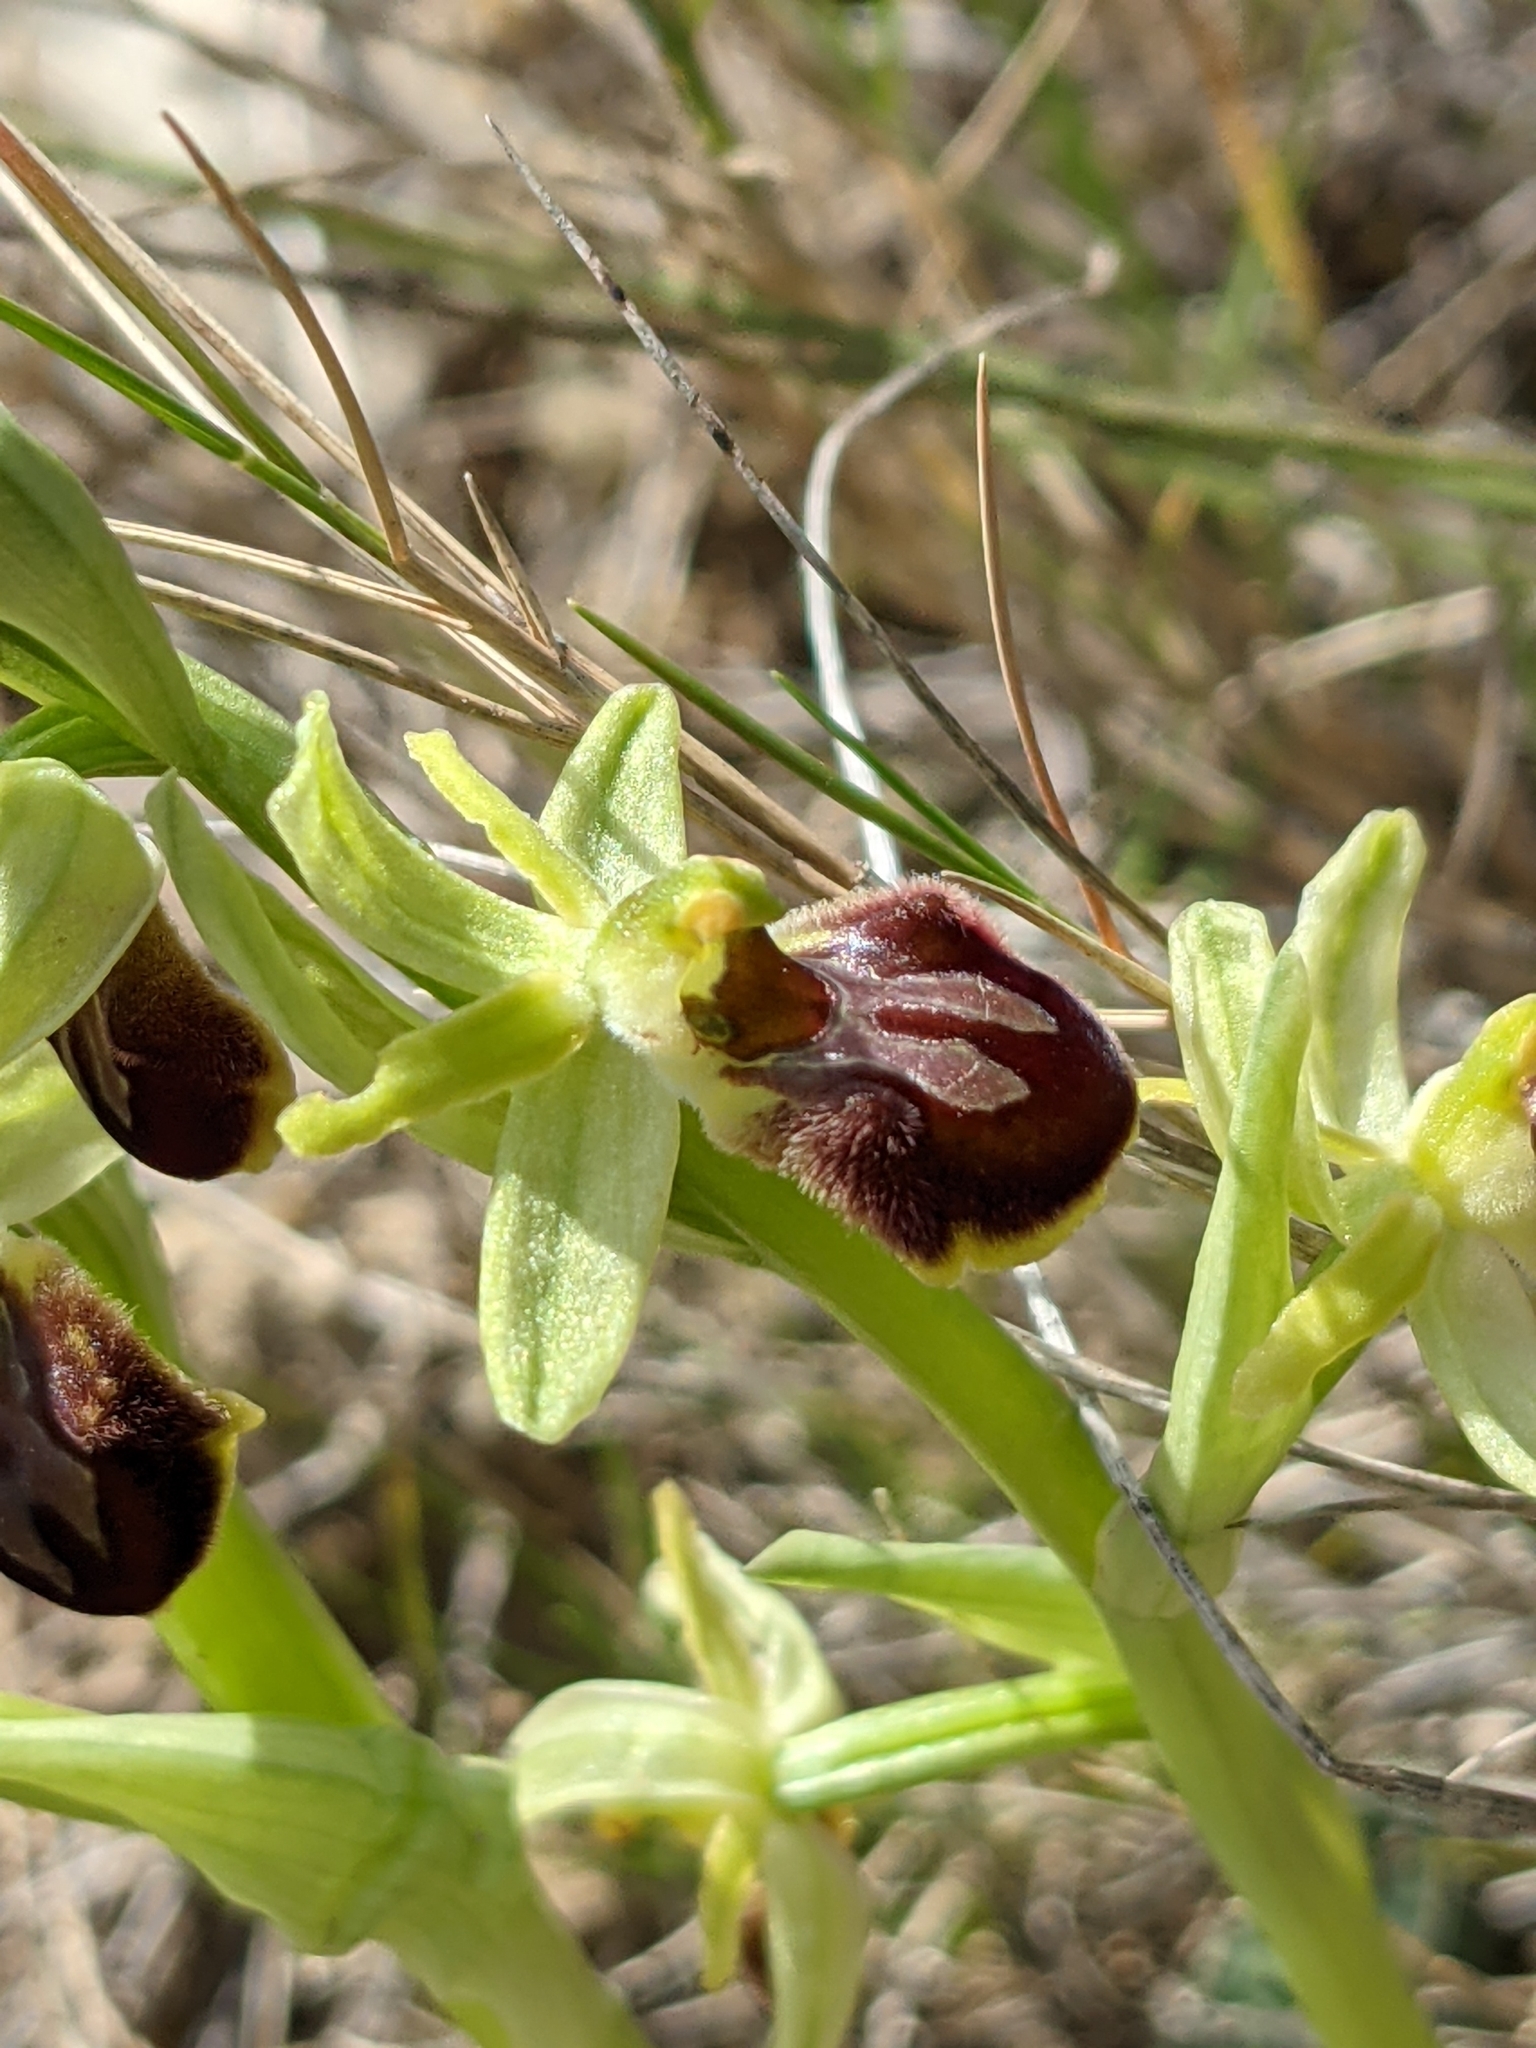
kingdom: Plantae
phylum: Tracheophyta
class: Liliopsida
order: Asparagales
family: Orchidaceae
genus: Ophrys
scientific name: Ophrys sphegodes
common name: Early spider-orchid
